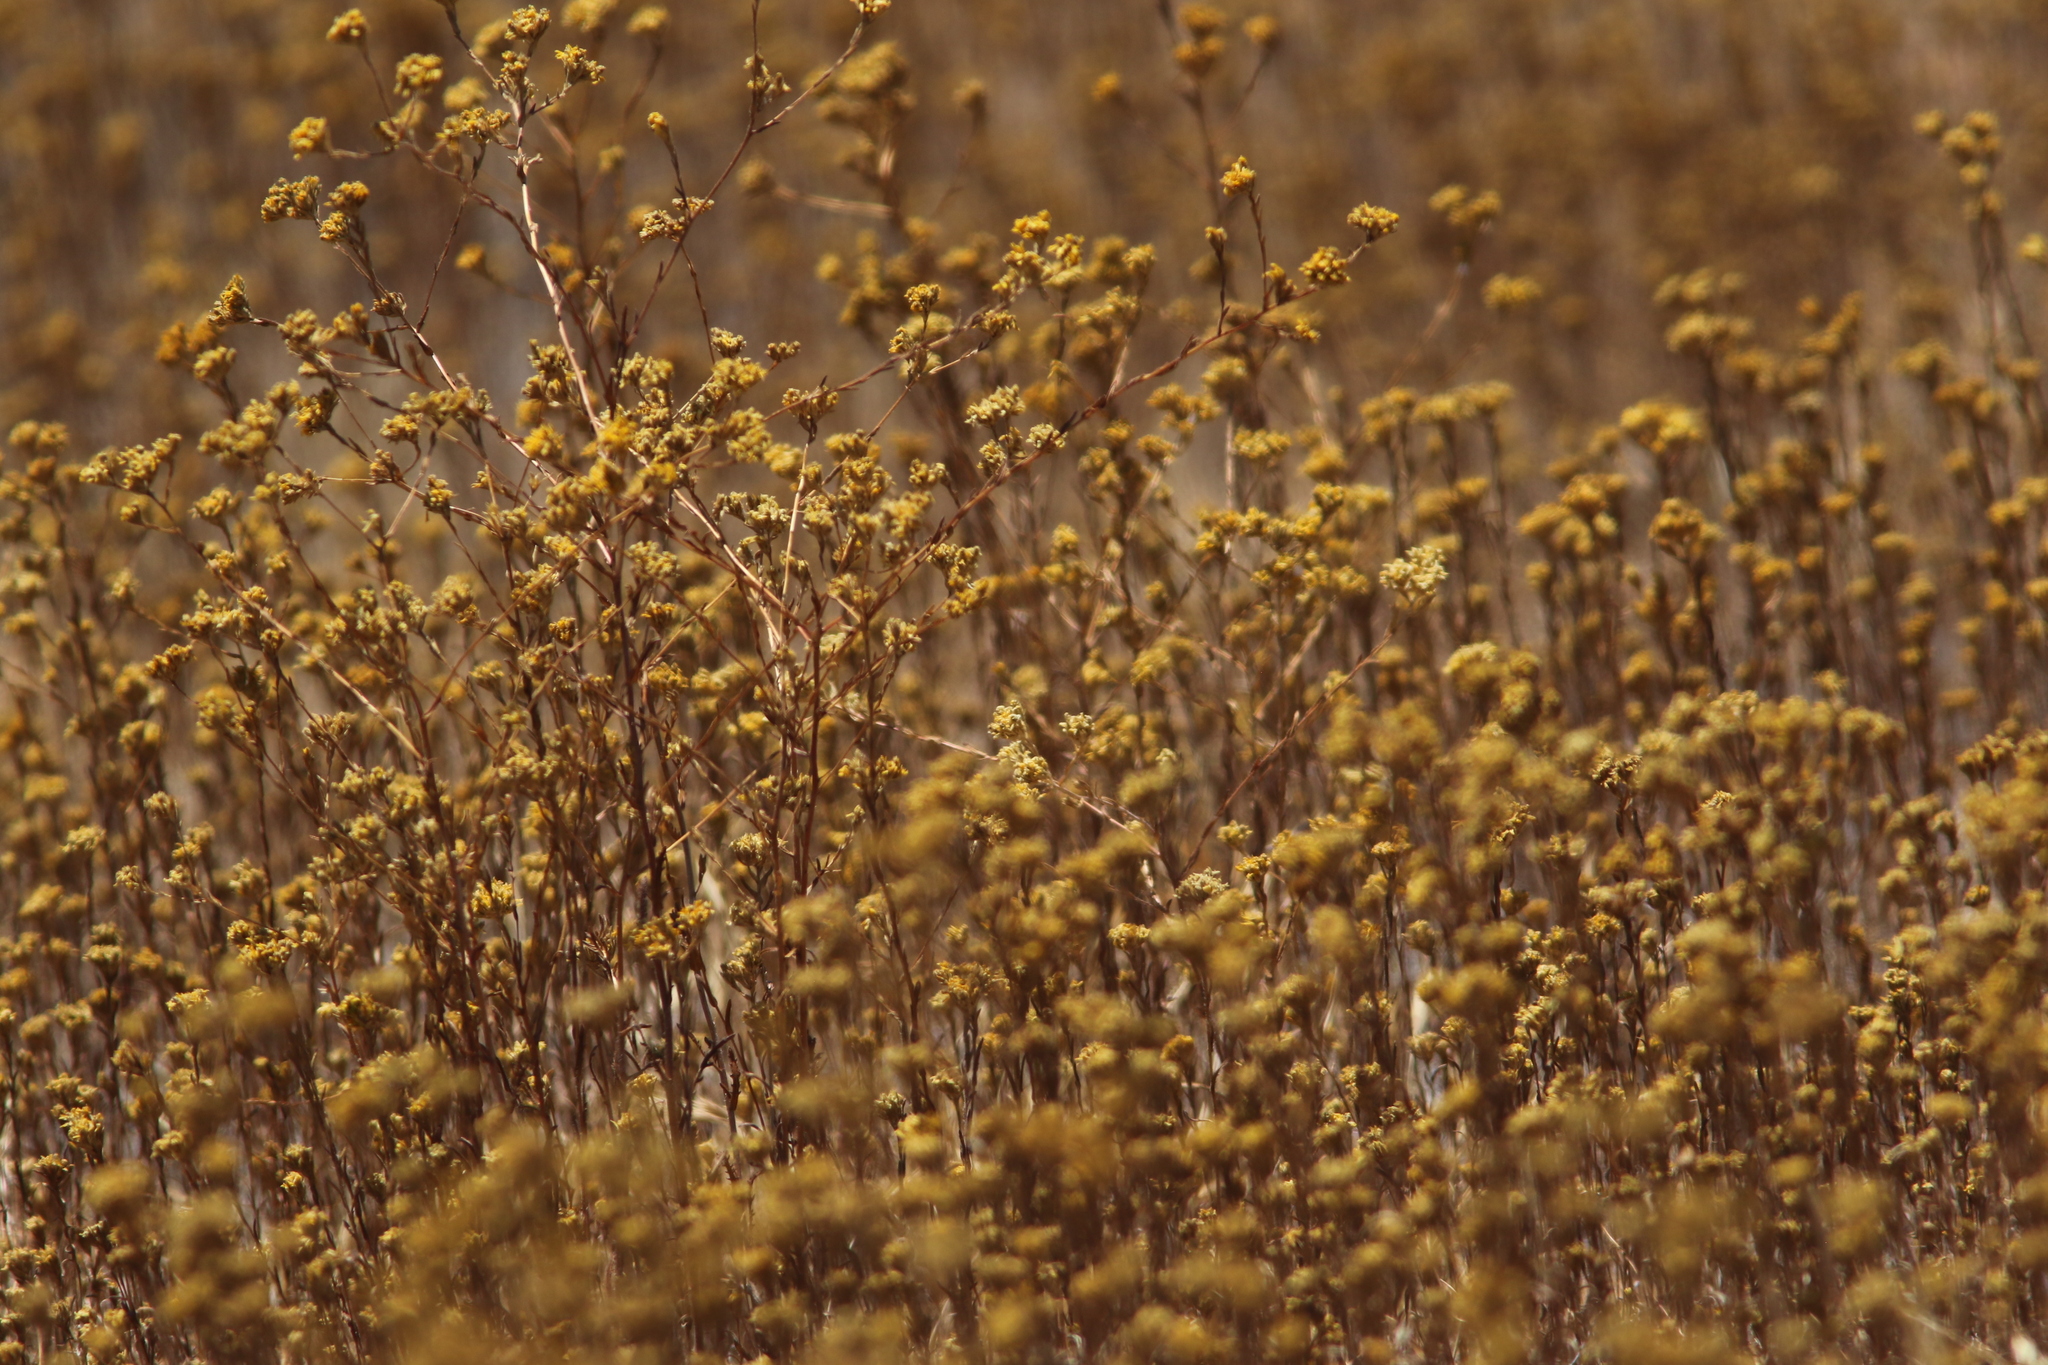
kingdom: Plantae
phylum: Tracheophyta
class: Magnoliopsida
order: Asterales
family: Asteraceae
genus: Deinandra
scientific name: Deinandra fasciculata
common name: Clustered tarweed
